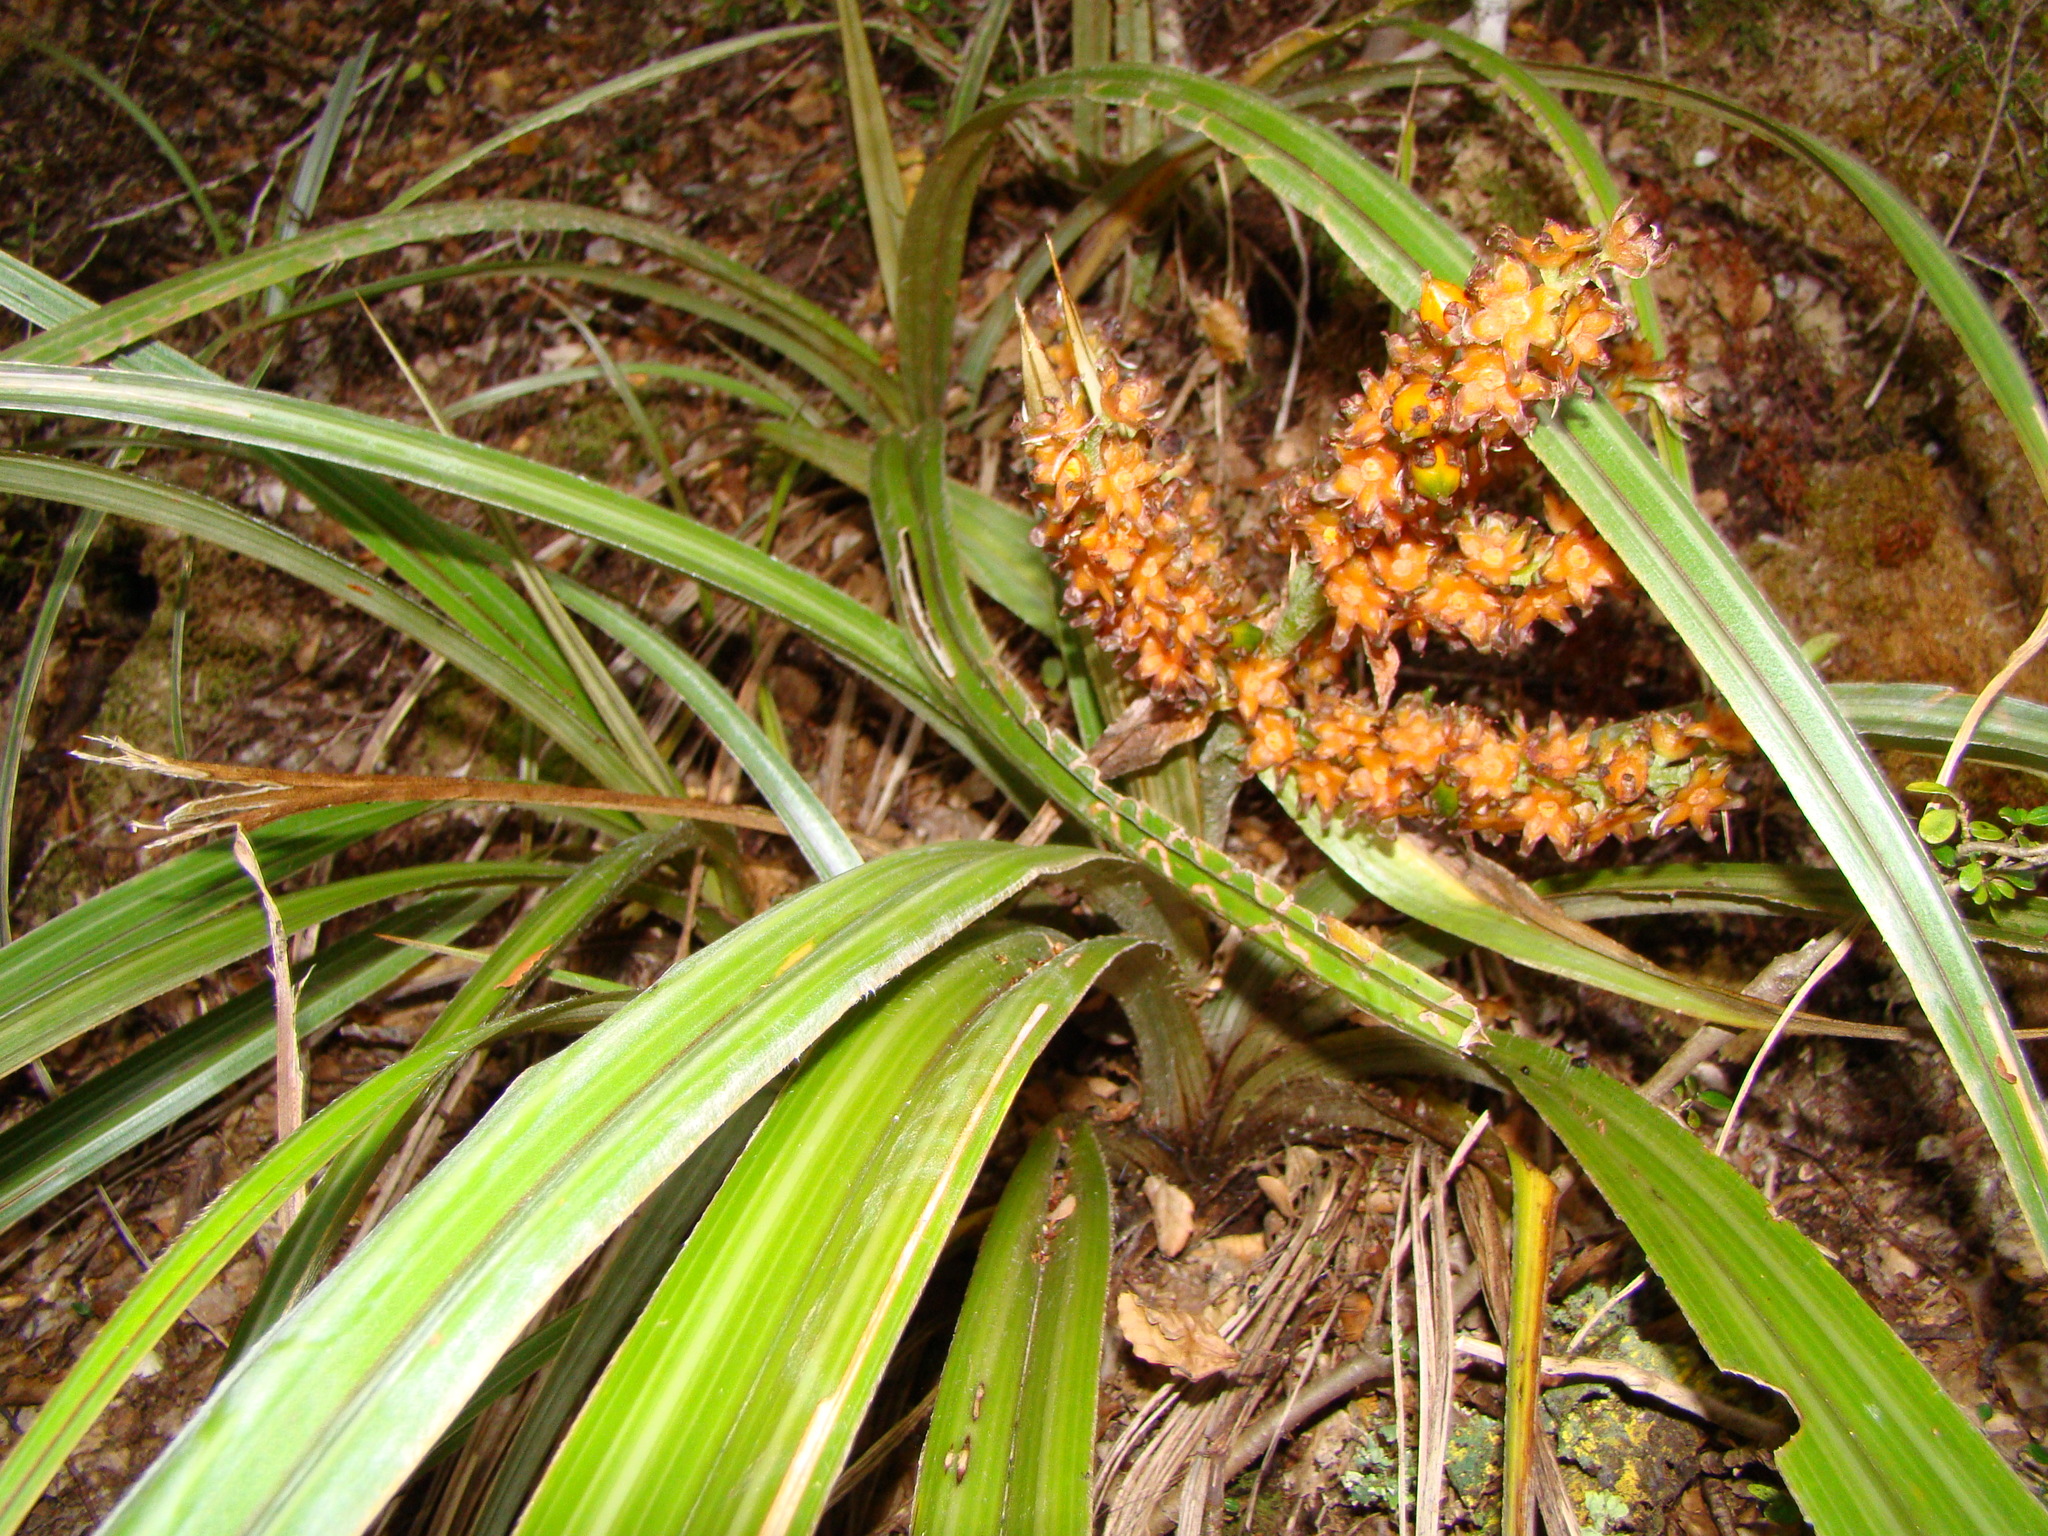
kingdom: Plantae
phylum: Tracheophyta
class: Liliopsida
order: Asparagales
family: Asteliaceae
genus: Astelia
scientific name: Astelia fragrans
